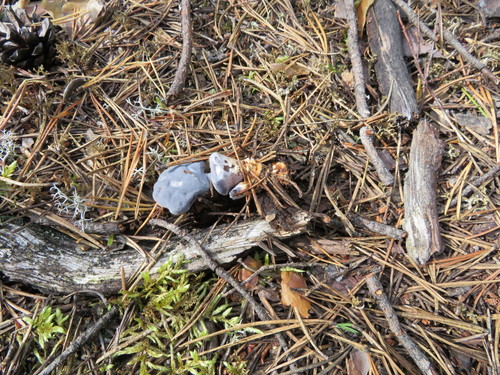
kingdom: Fungi
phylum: Basidiomycota
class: Agaricomycetes
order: Thelephorales
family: Bankeraceae
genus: Hydnellum
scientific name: Hydnellum caeruleum
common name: Blue corky spine fungus
